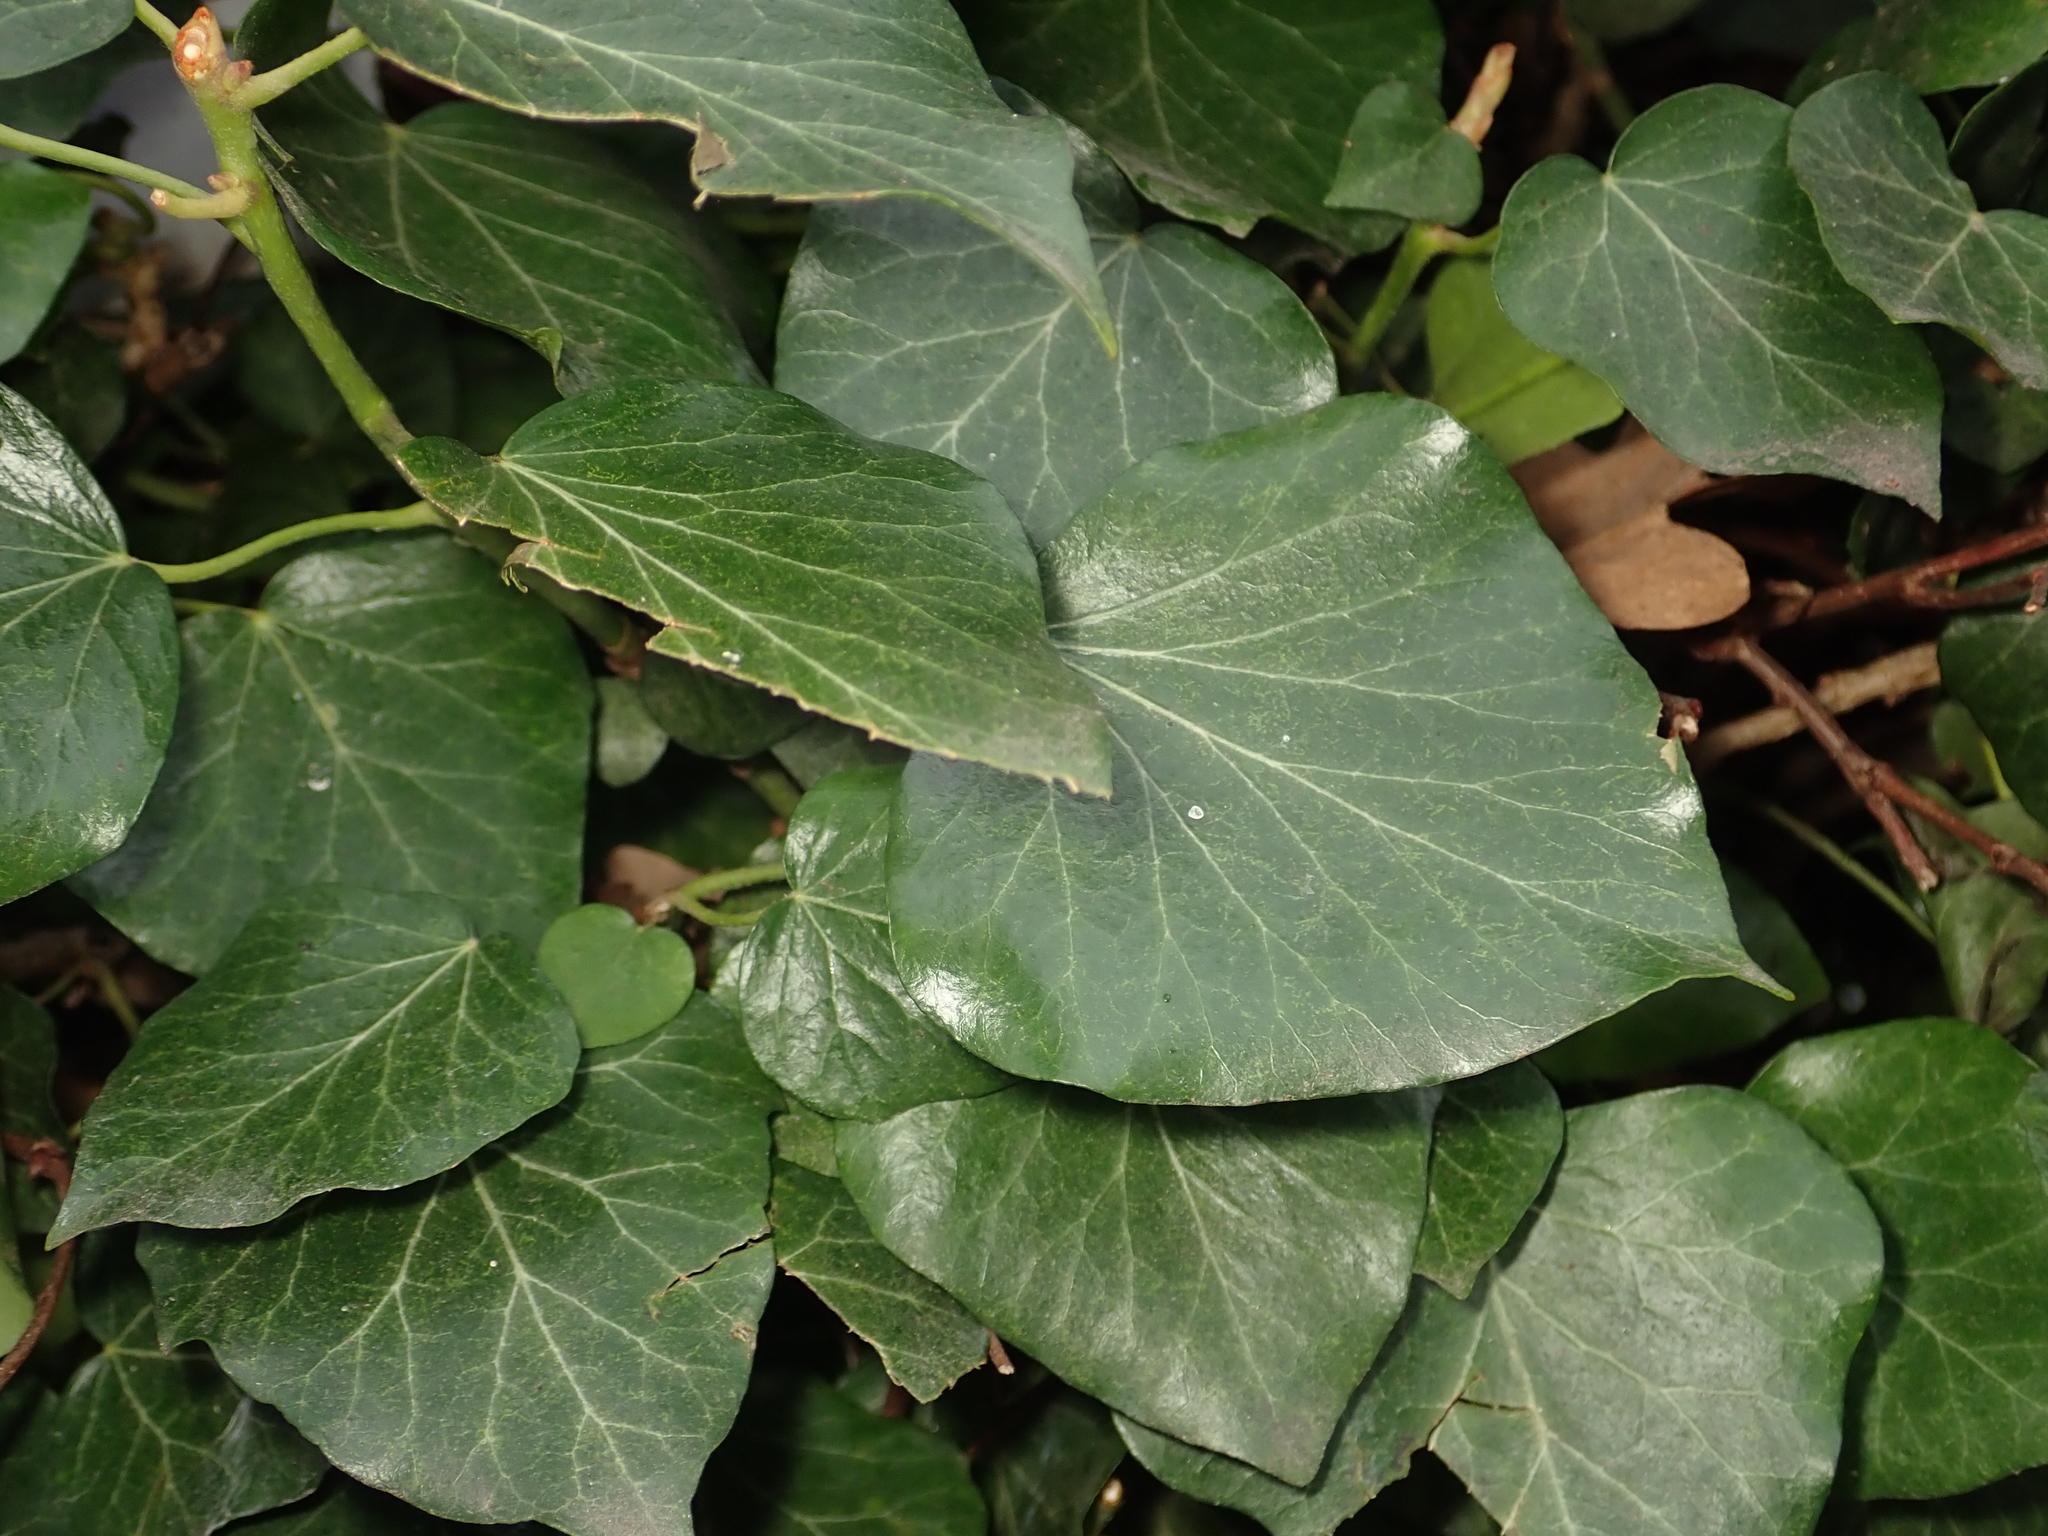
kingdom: Plantae
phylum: Tracheophyta
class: Magnoliopsida
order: Apiales
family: Araliaceae
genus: Hedera
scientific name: Hedera helix
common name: Ivy
